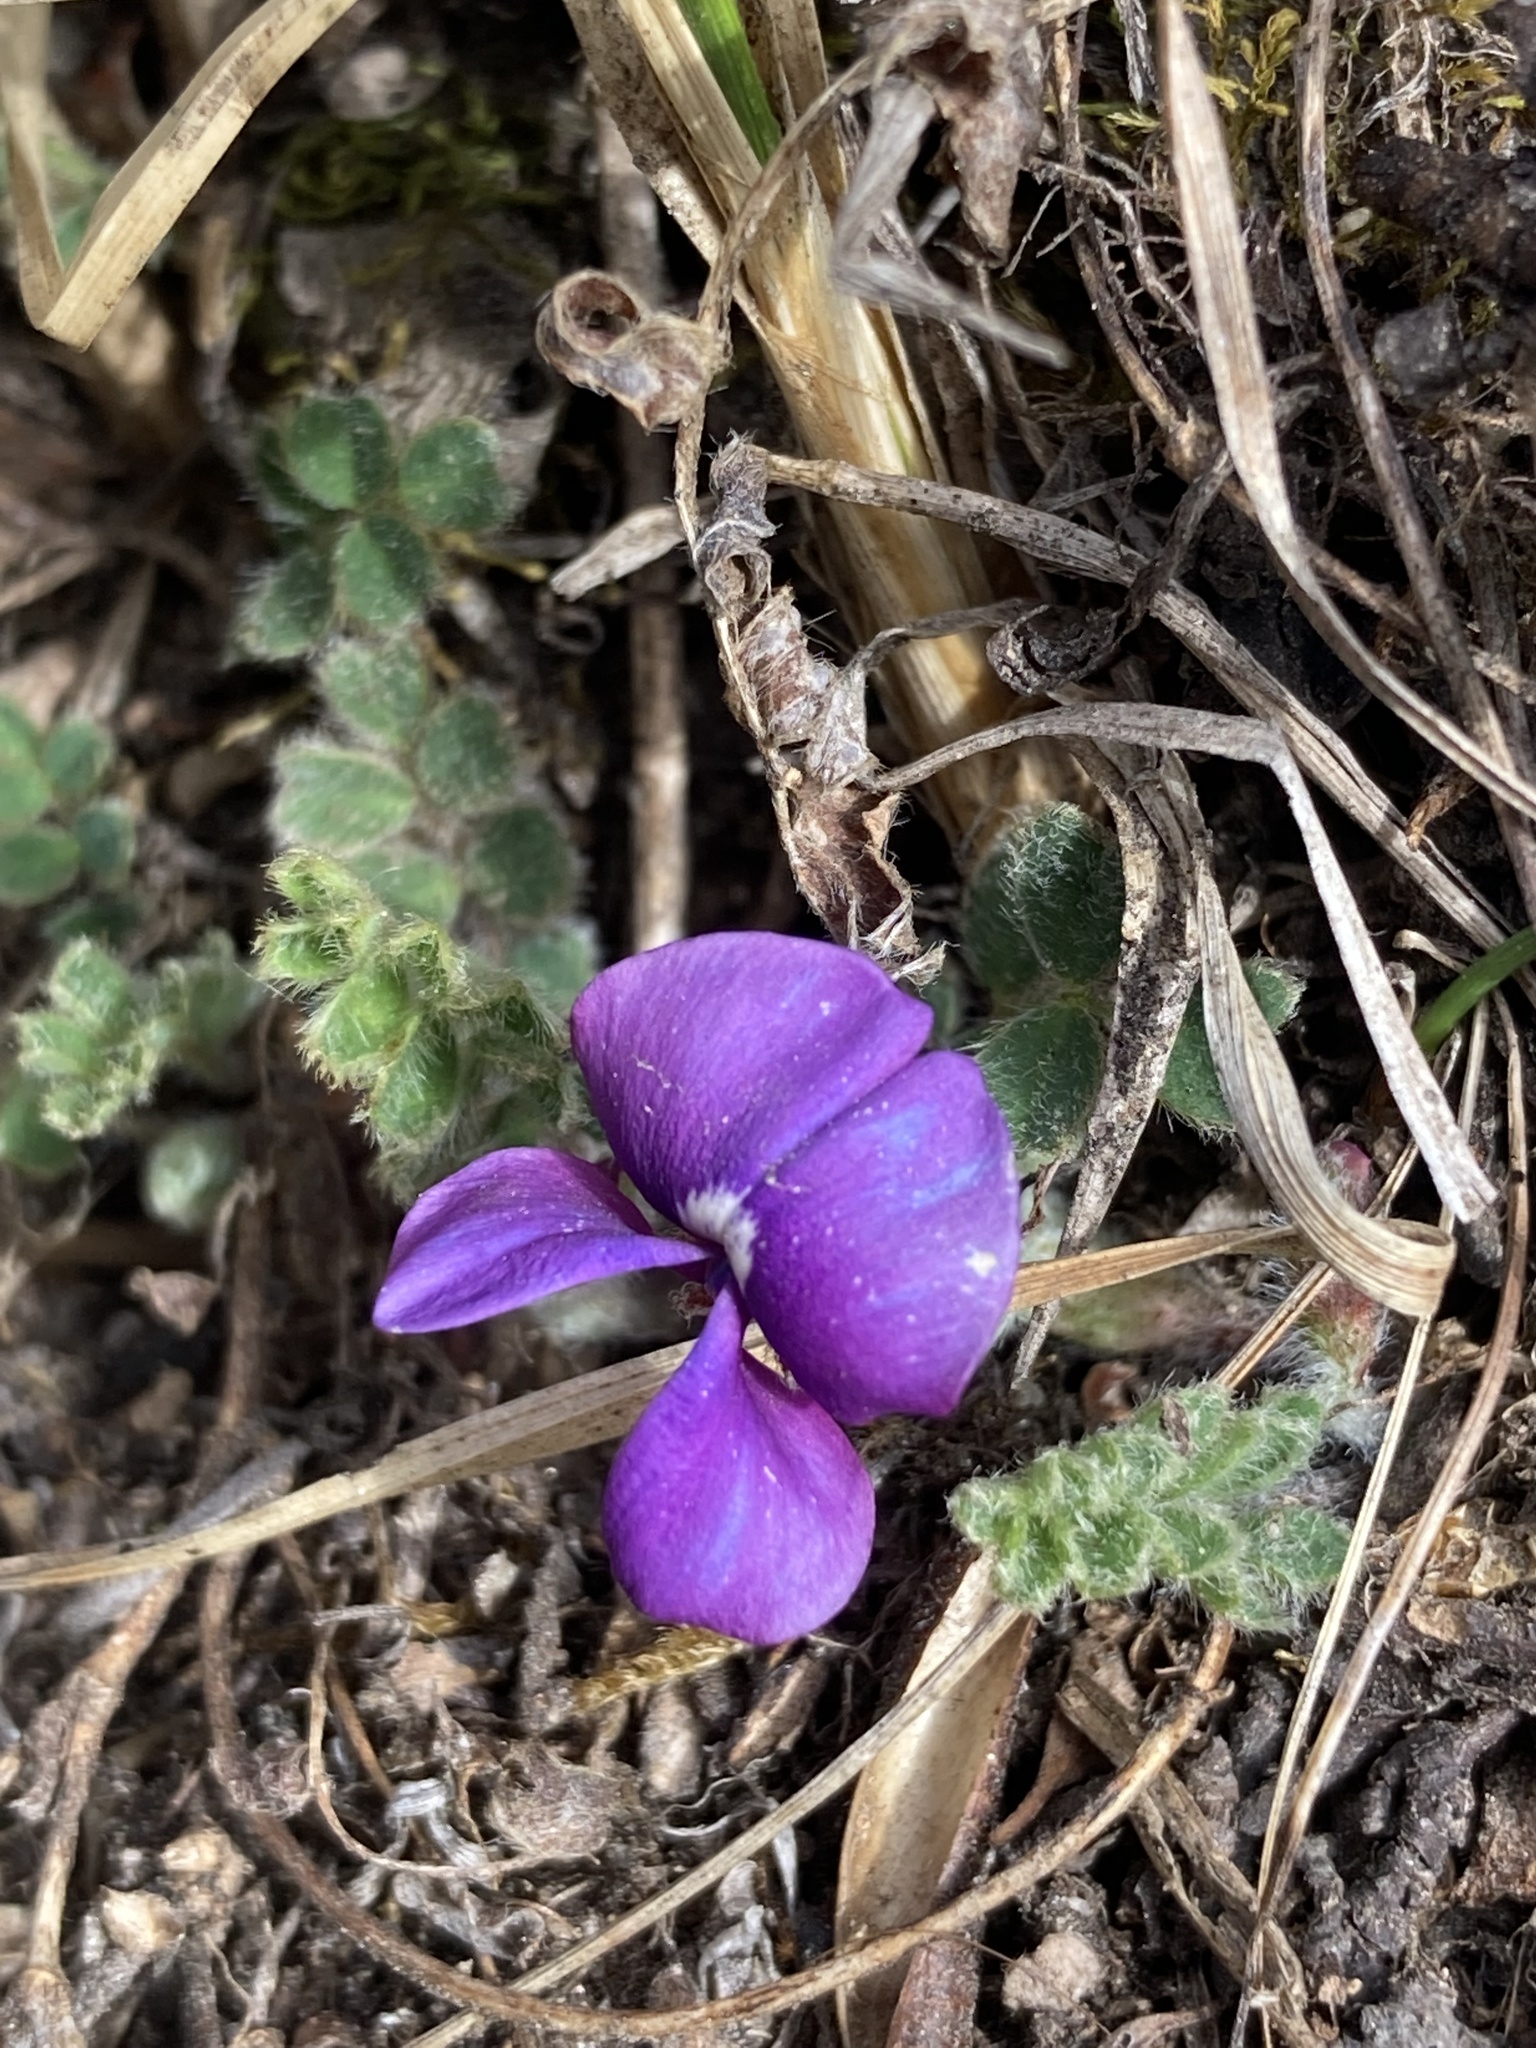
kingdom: Plantae
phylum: Tracheophyta
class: Magnoliopsida
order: Fabales
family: Fabaceae
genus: Tibetia
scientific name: Tibetia himalaica
